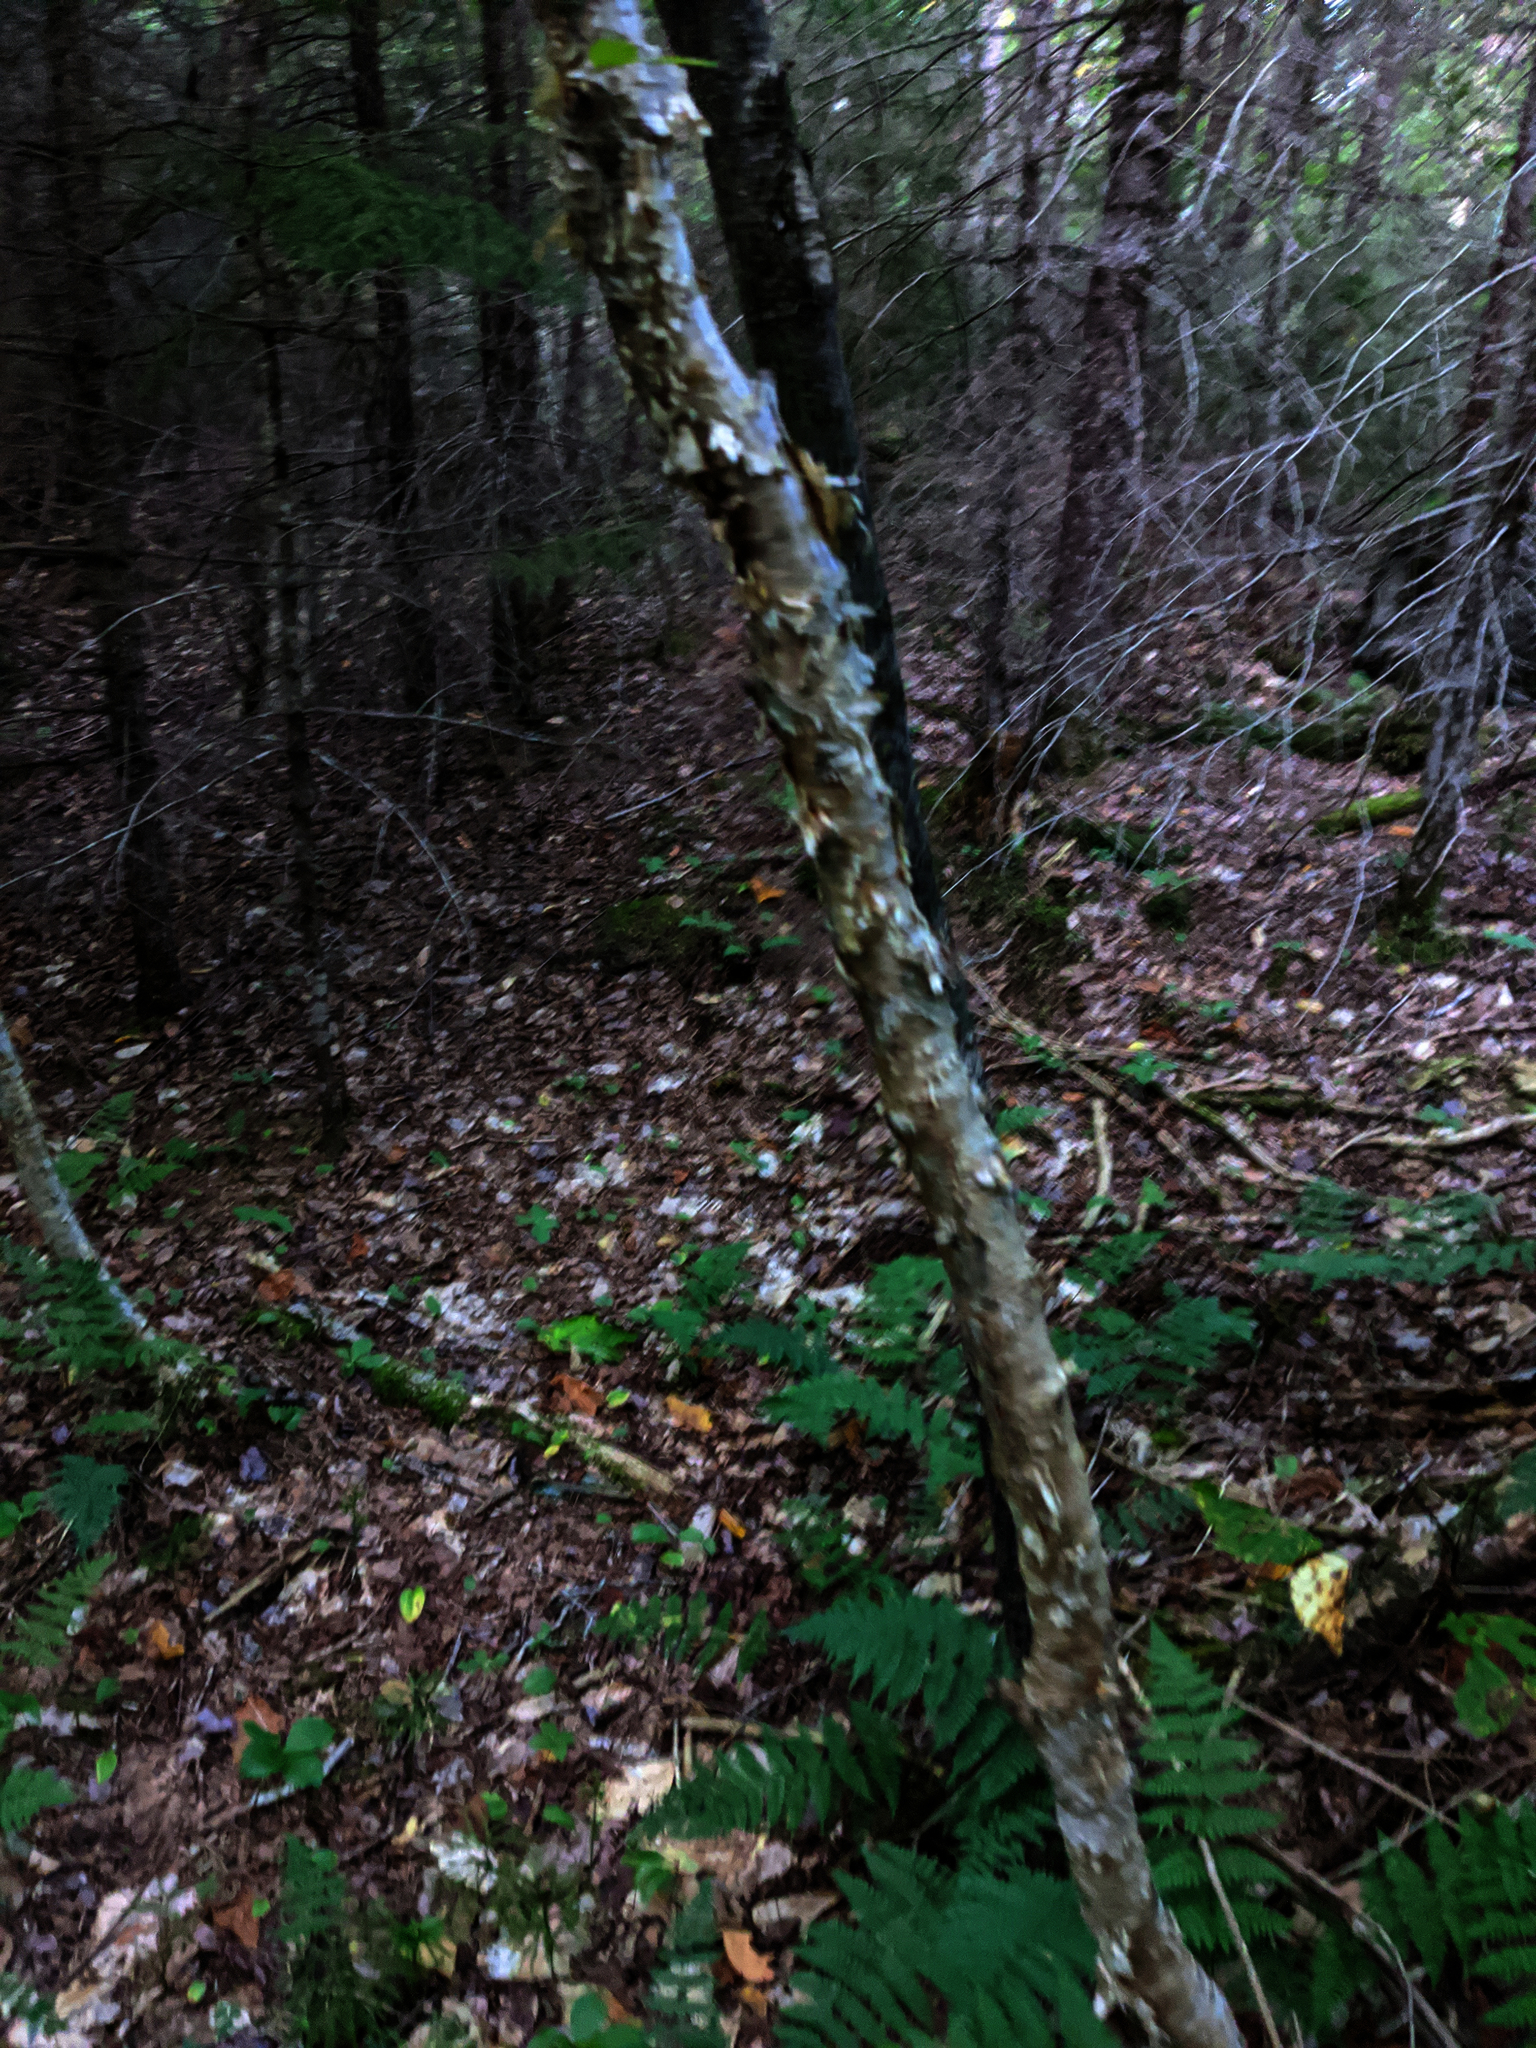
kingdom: Plantae
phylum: Tracheophyta
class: Magnoliopsida
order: Fagales
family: Betulaceae
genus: Betula
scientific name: Betula alleghaniensis
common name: Yellow birch
